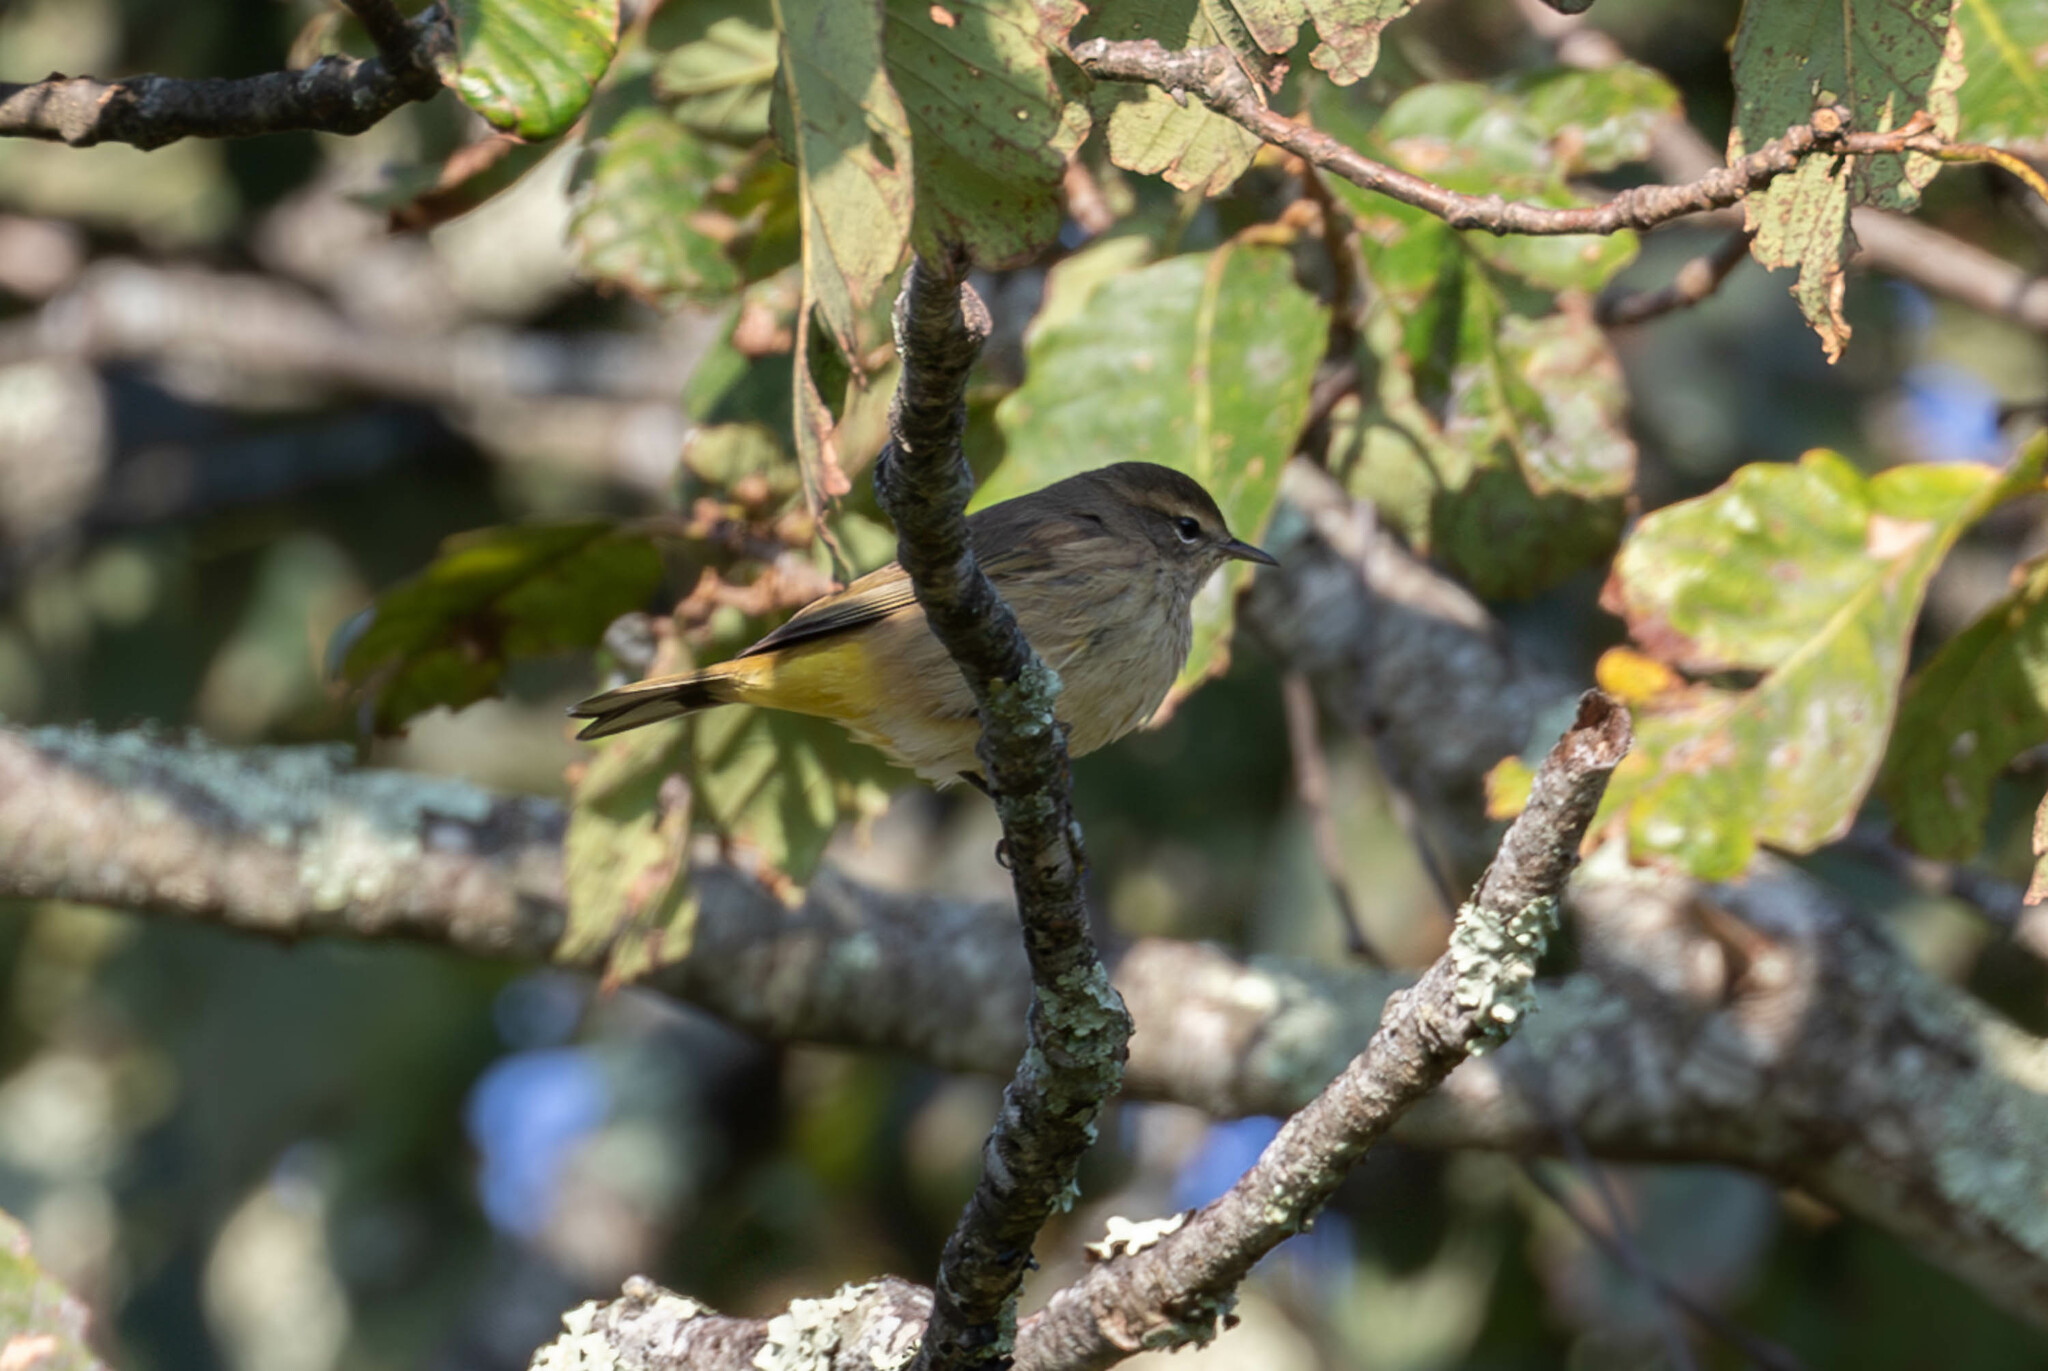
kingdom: Animalia
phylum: Chordata
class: Aves
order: Passeriformes
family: Parulidae
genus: Setophaga
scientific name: Setophaga palmarum
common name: Palm warbler
